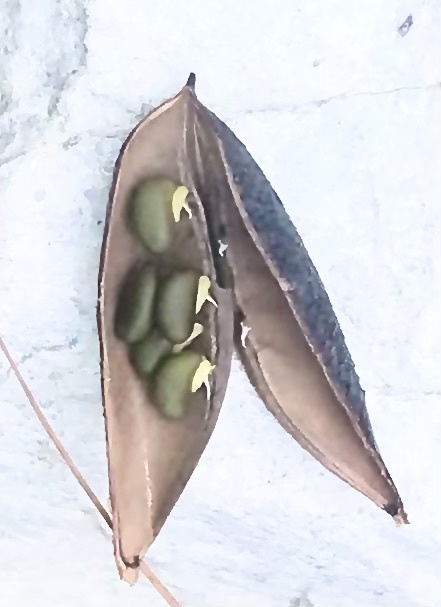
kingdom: Plantae
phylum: Tracheophyta
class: Magnoliopsida
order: Fabales
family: Fabaceae
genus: Cyclopia
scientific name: Cyclopia subternata
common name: Honeybush tea
